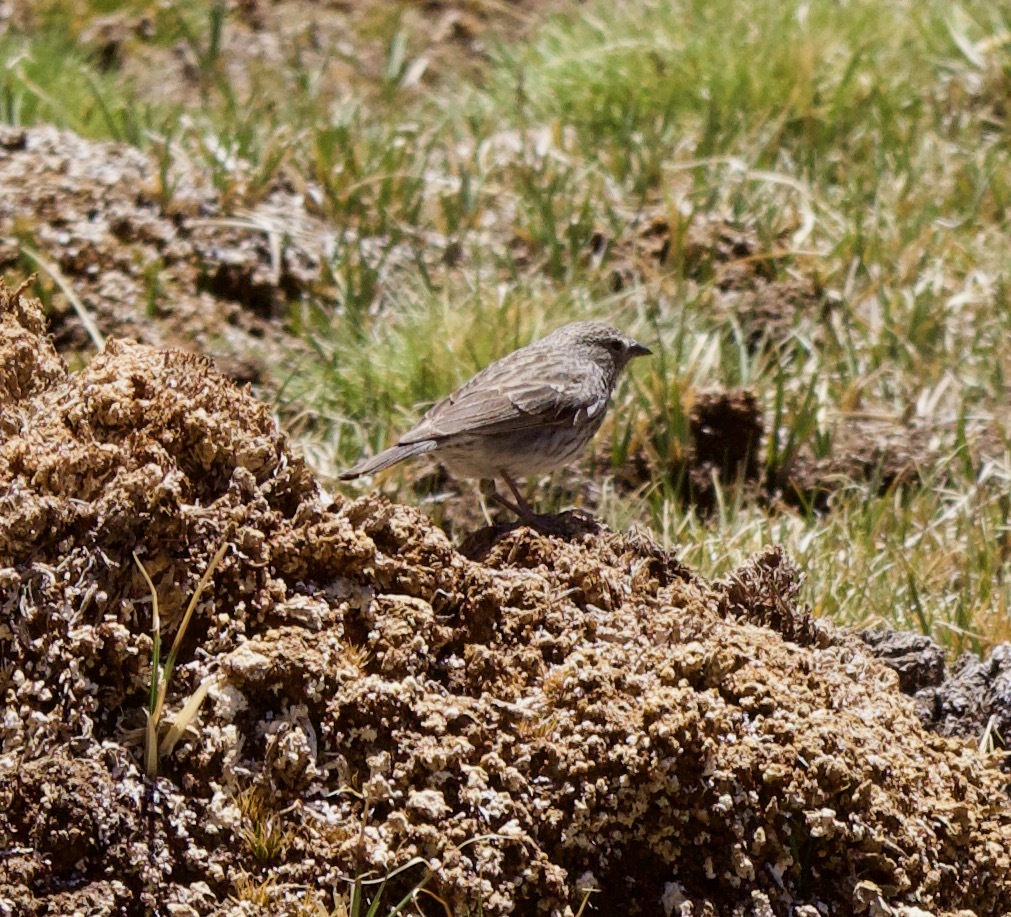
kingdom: Animalia
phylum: Chordata
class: Aves
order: Passeriformes
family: Thraupidae
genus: Geospizopsis
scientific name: Geospizopsis plebejus
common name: Ash-breasted sierra-finch
